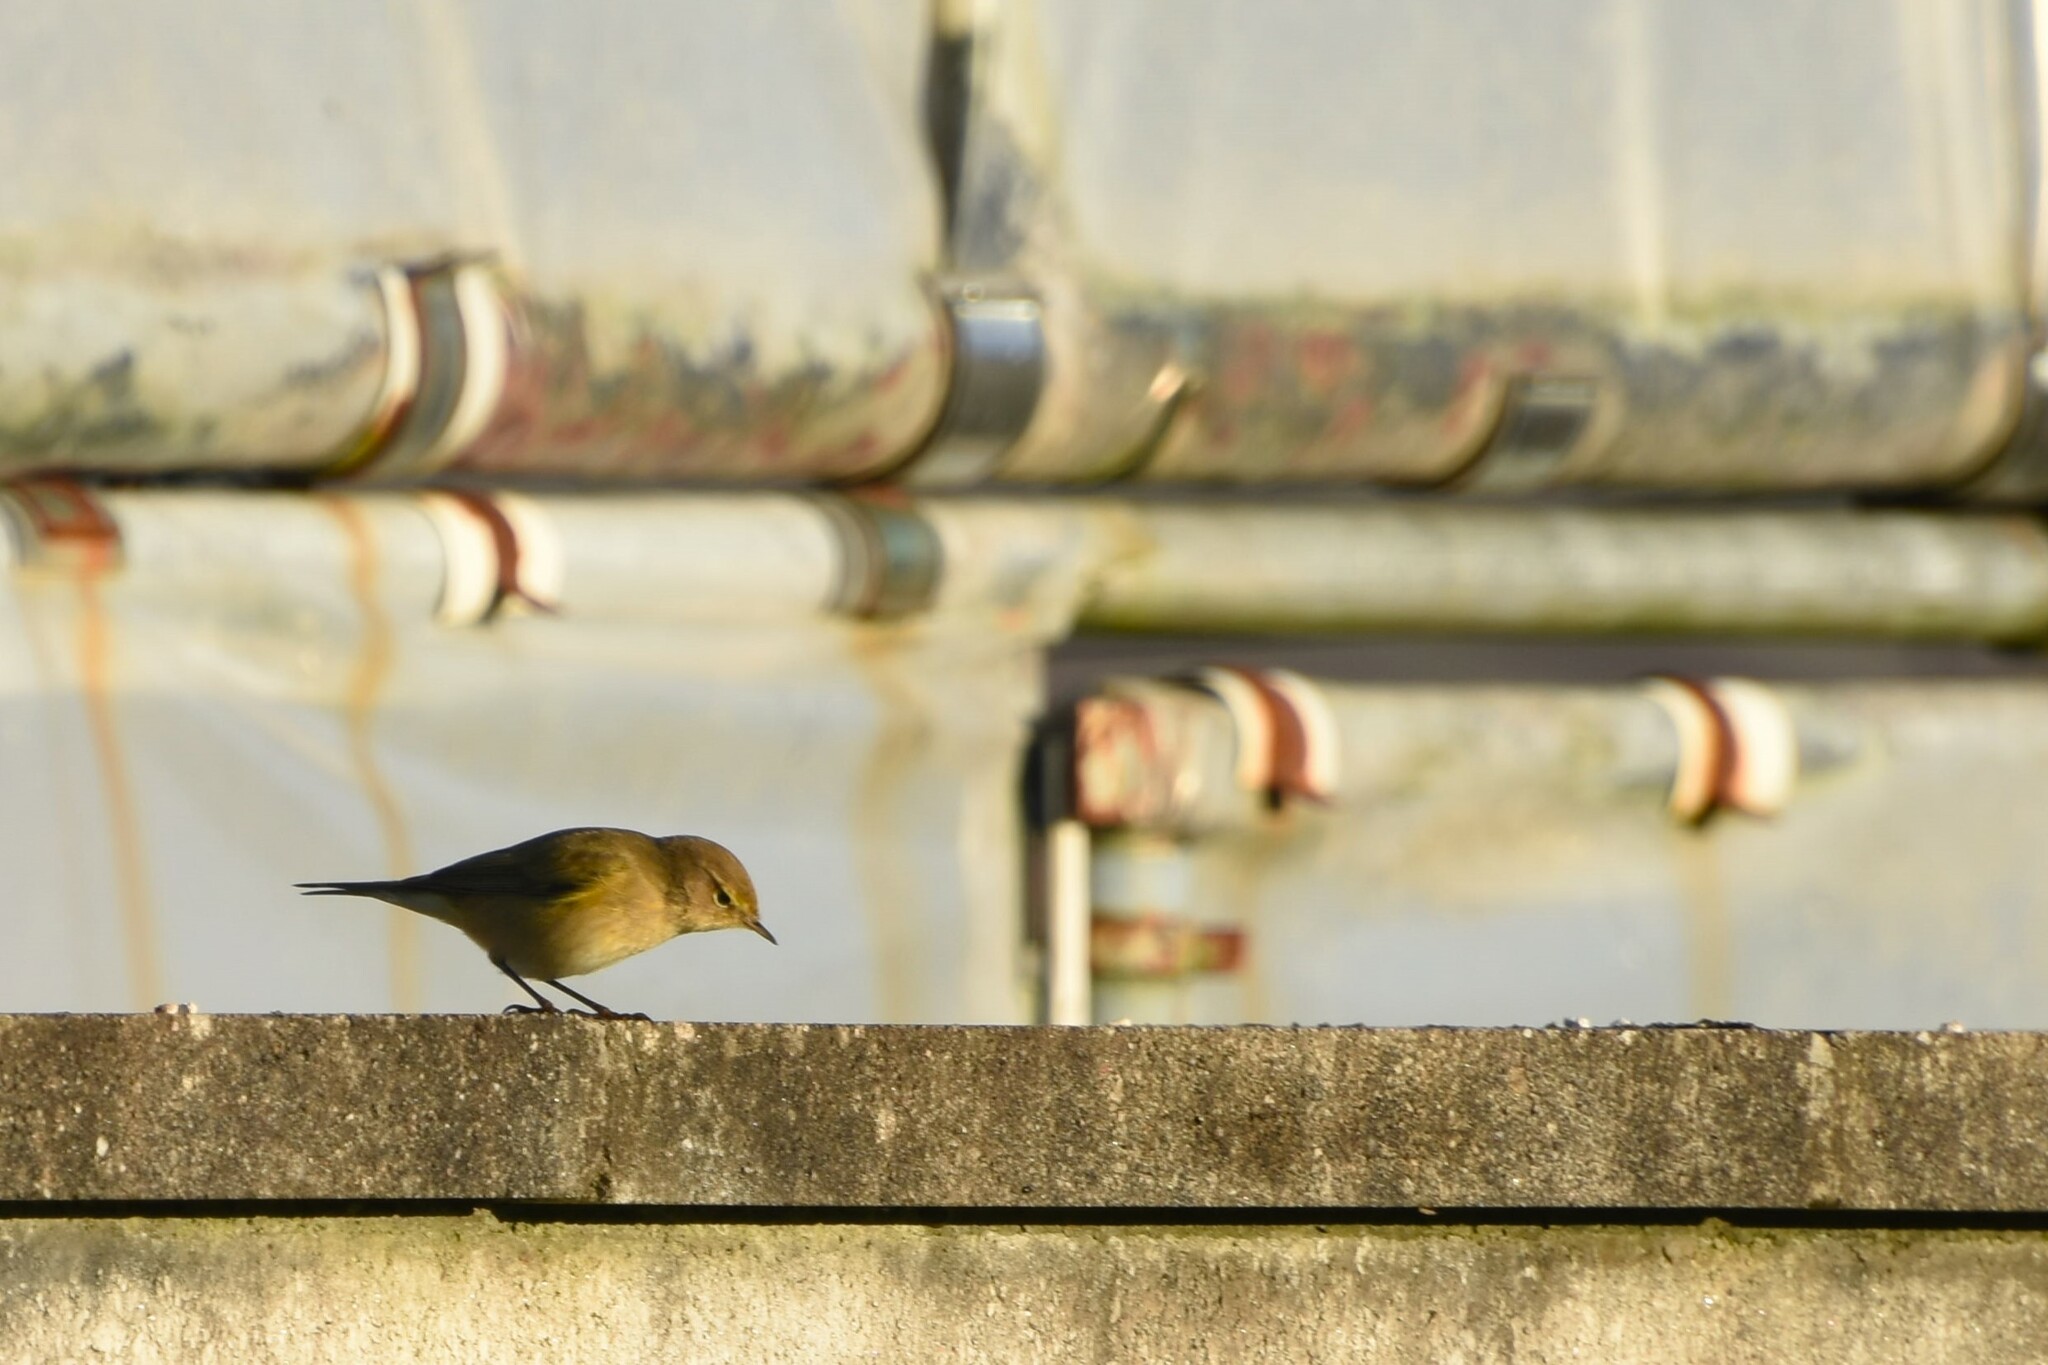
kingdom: Animalia
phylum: Chordata
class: Aves
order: Passeriformes
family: Phylloscopidae
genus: Phylloscopus
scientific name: Phylloscopus collybita
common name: Common chiffchaff
